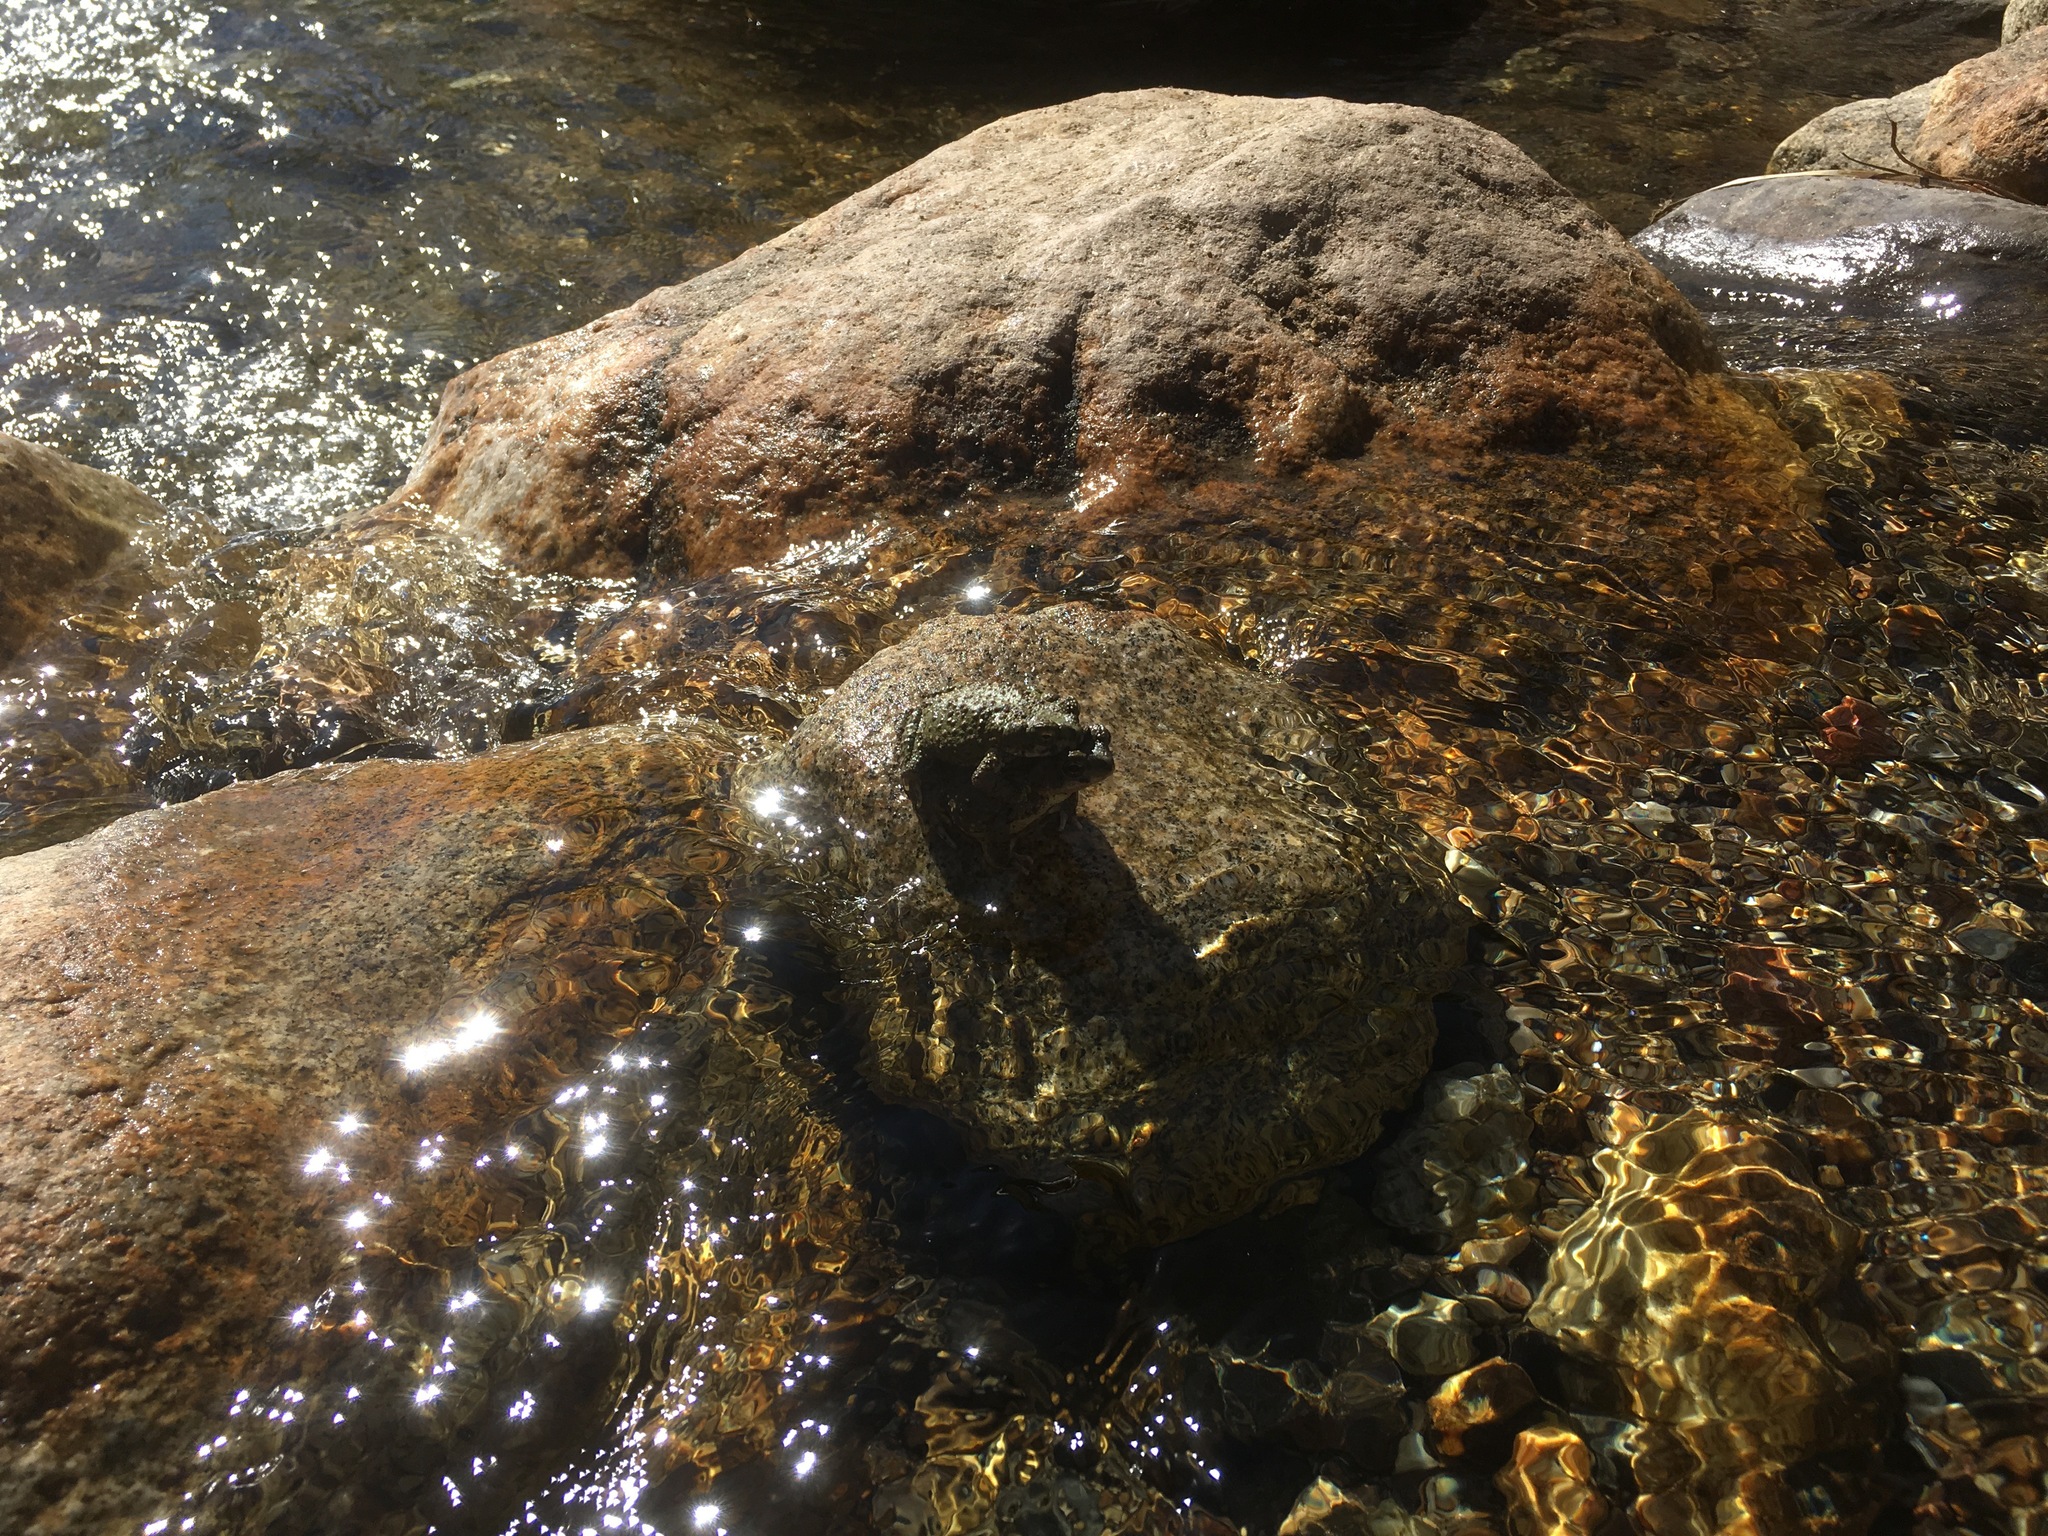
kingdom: Animalia
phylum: Chordata
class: Amphibia
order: Anura
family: Bufonidae
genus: Anaxyrus
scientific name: Anaxyrus punctatus
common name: Red-spotted toad
